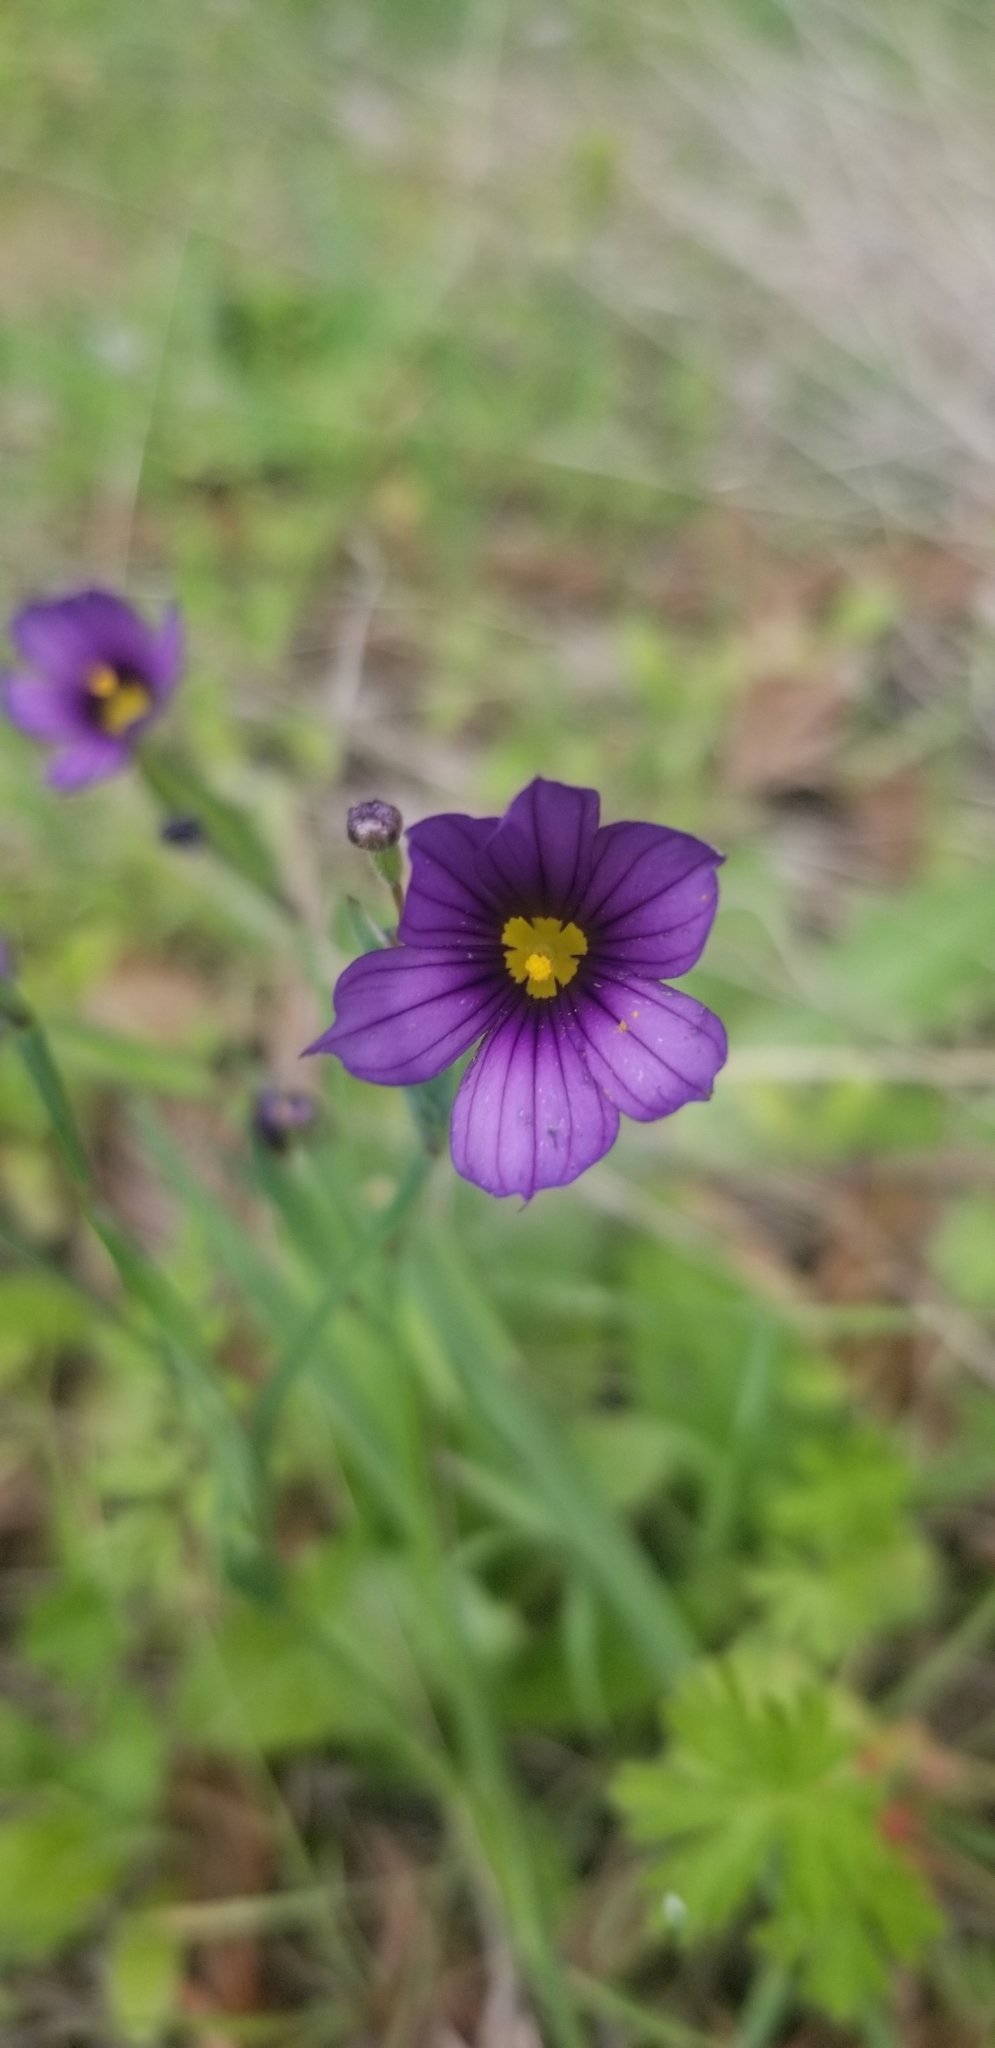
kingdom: Plantae
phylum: Tracheophyta
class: Liliopsida
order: Asparagales
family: Iridaceae
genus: Sisyrinchium
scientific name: Sisyrinchium bellum
